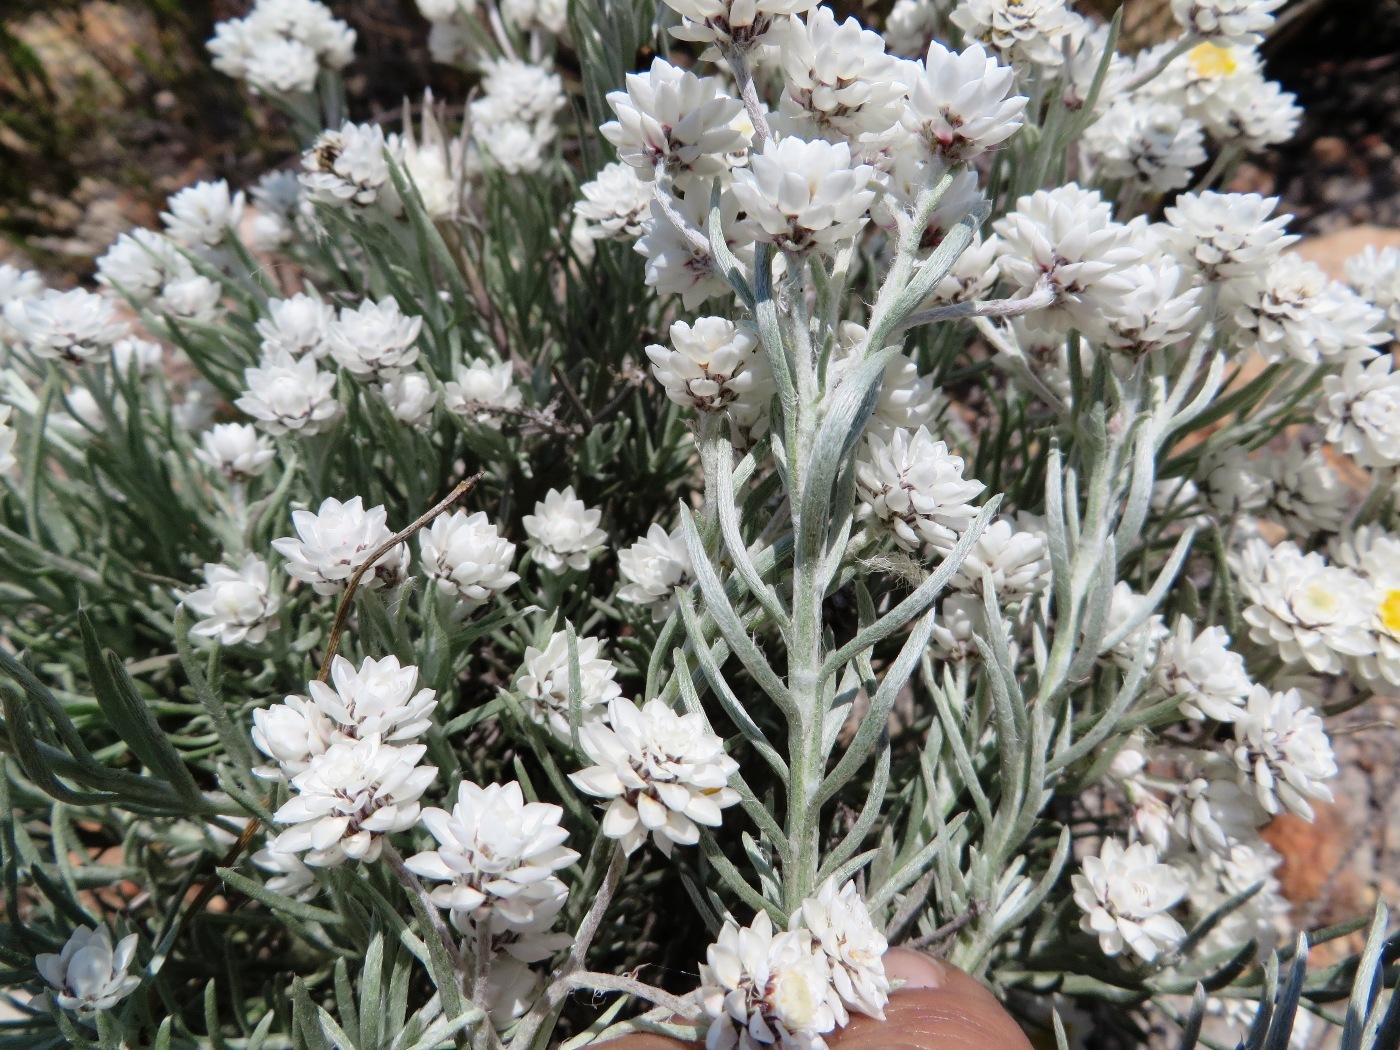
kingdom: Plantae
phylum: Tracheophyta
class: Magnoliopsida
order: Asterales
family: Asteraceae
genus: Achyranthemum
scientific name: Achyranthemum paniculatum
